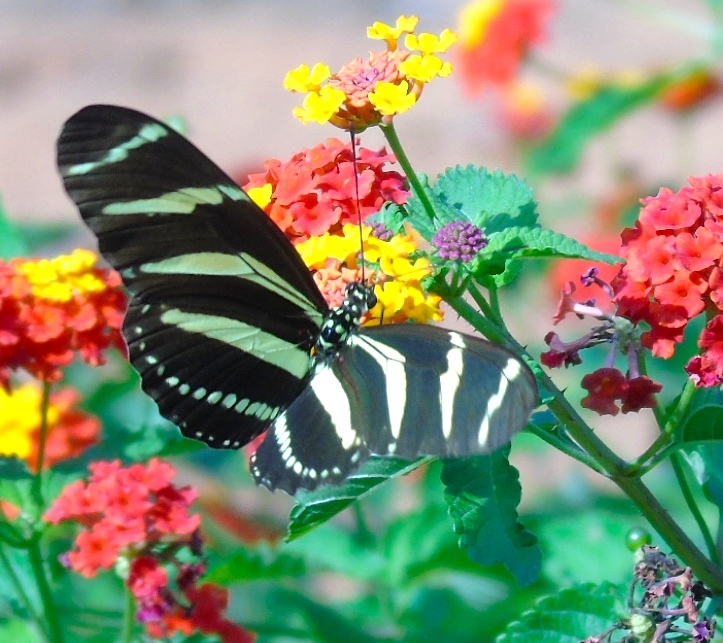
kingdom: Animalia
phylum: Arthropoda
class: Insecta
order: Lepidoptera
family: Nymphalidae
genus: Heliconius
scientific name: Heliconius charithonia
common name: Zebra long wing
